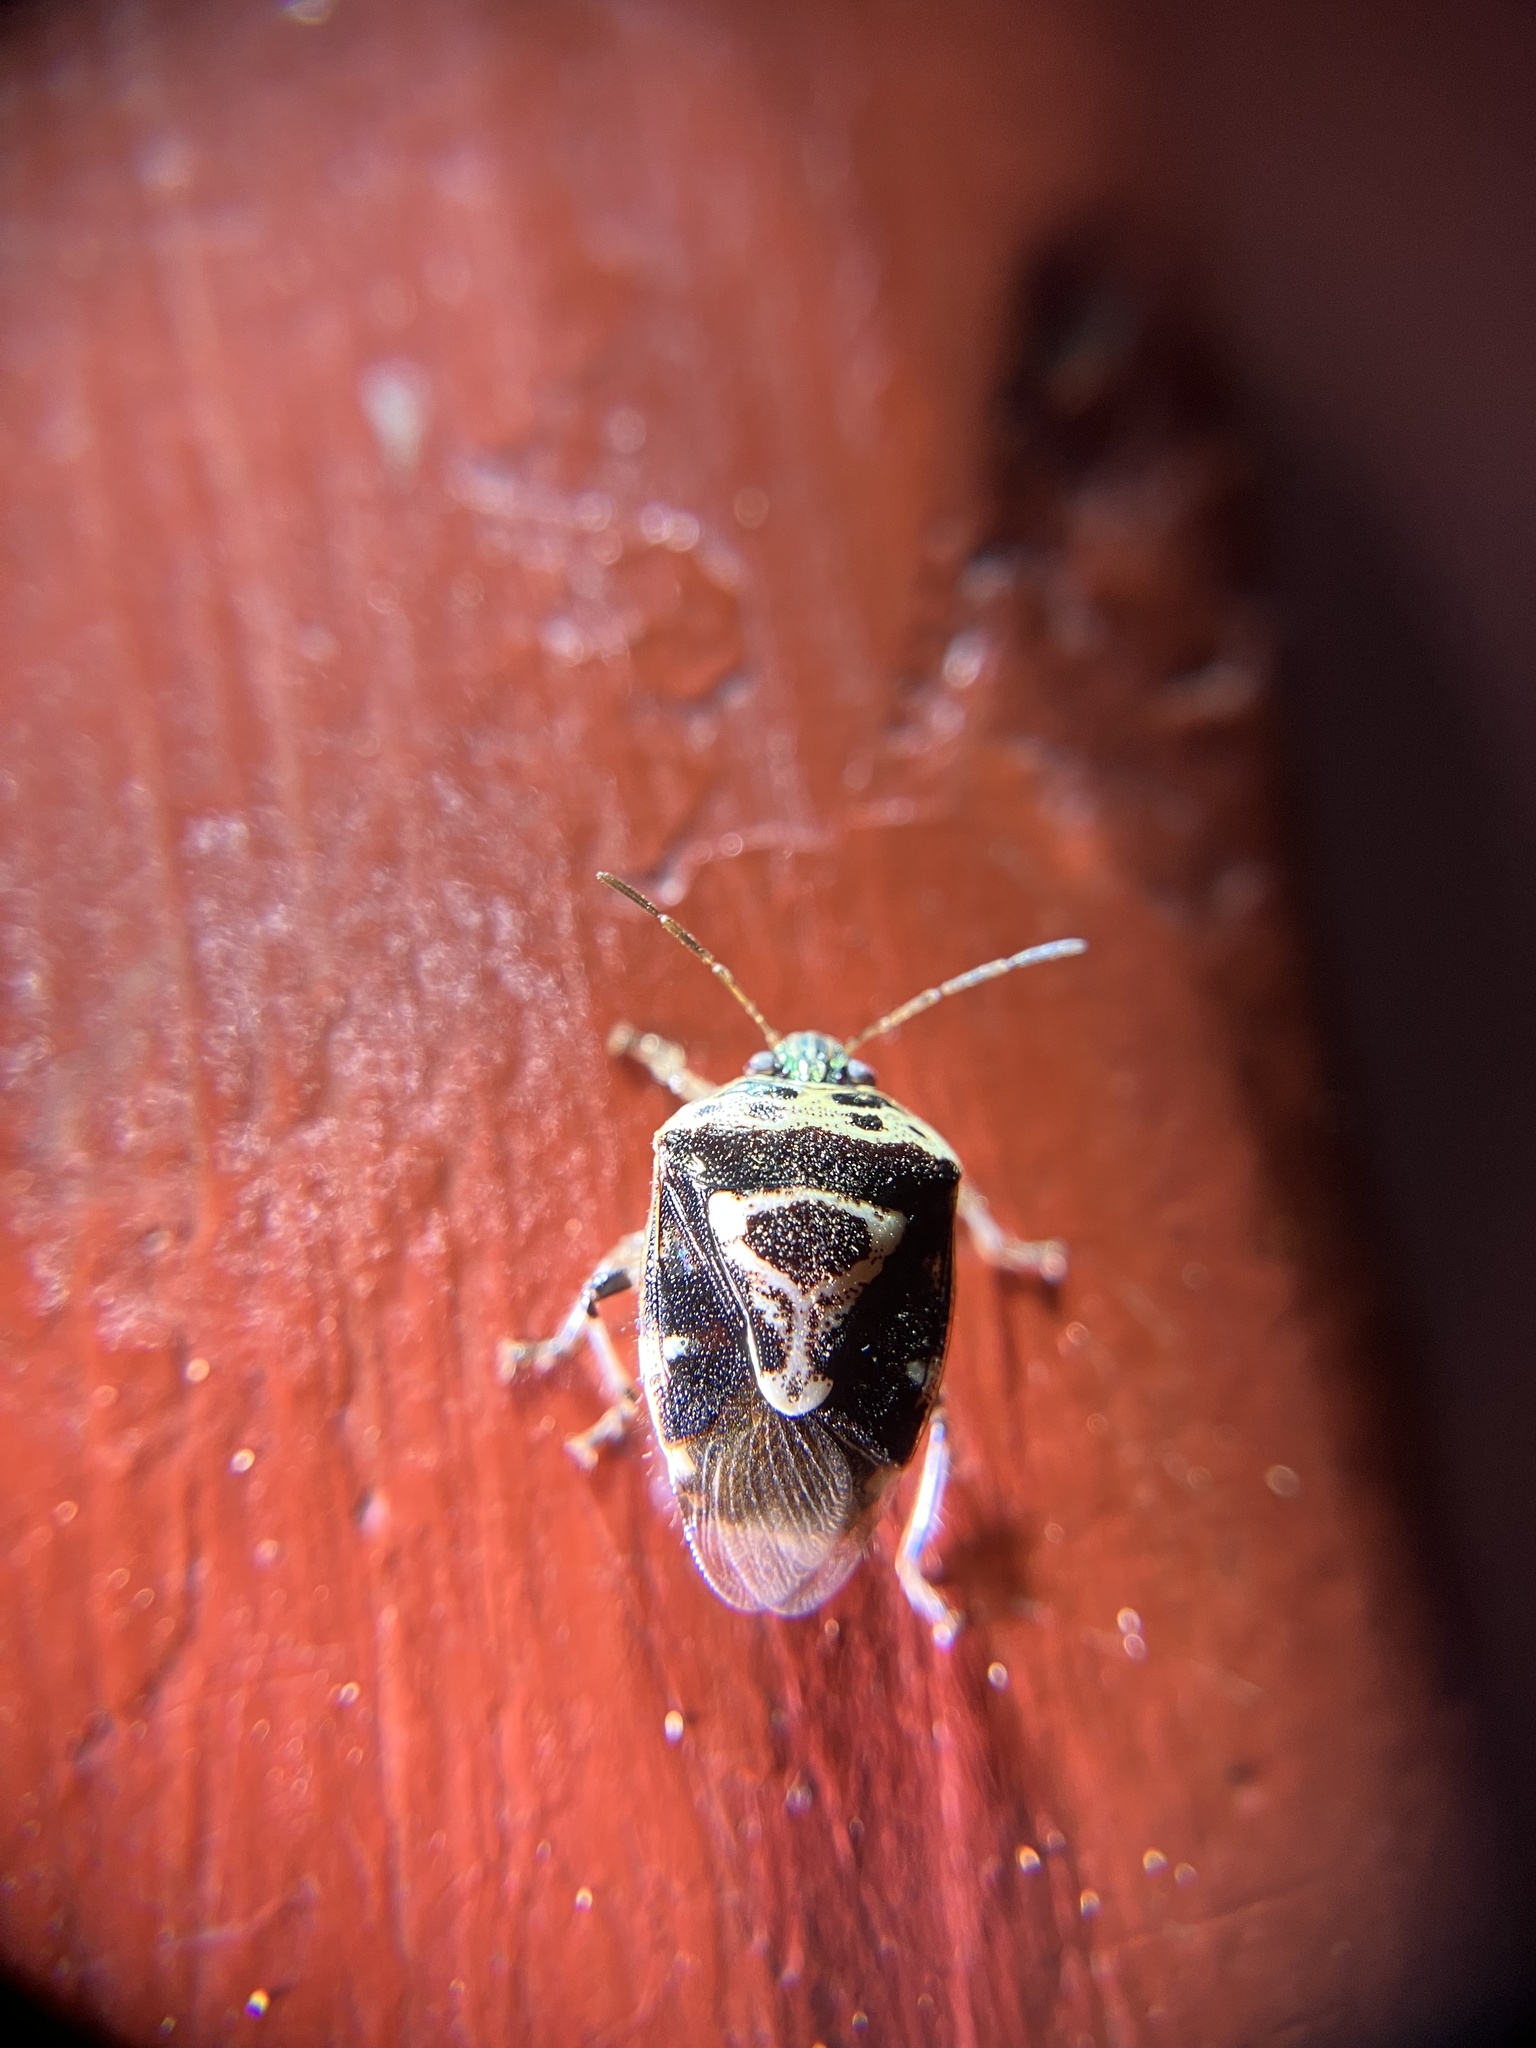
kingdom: Animalia
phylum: Arthropoda
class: Insecta
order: Hemiptera
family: Pentatomidae
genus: Menida
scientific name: Menida formosa
